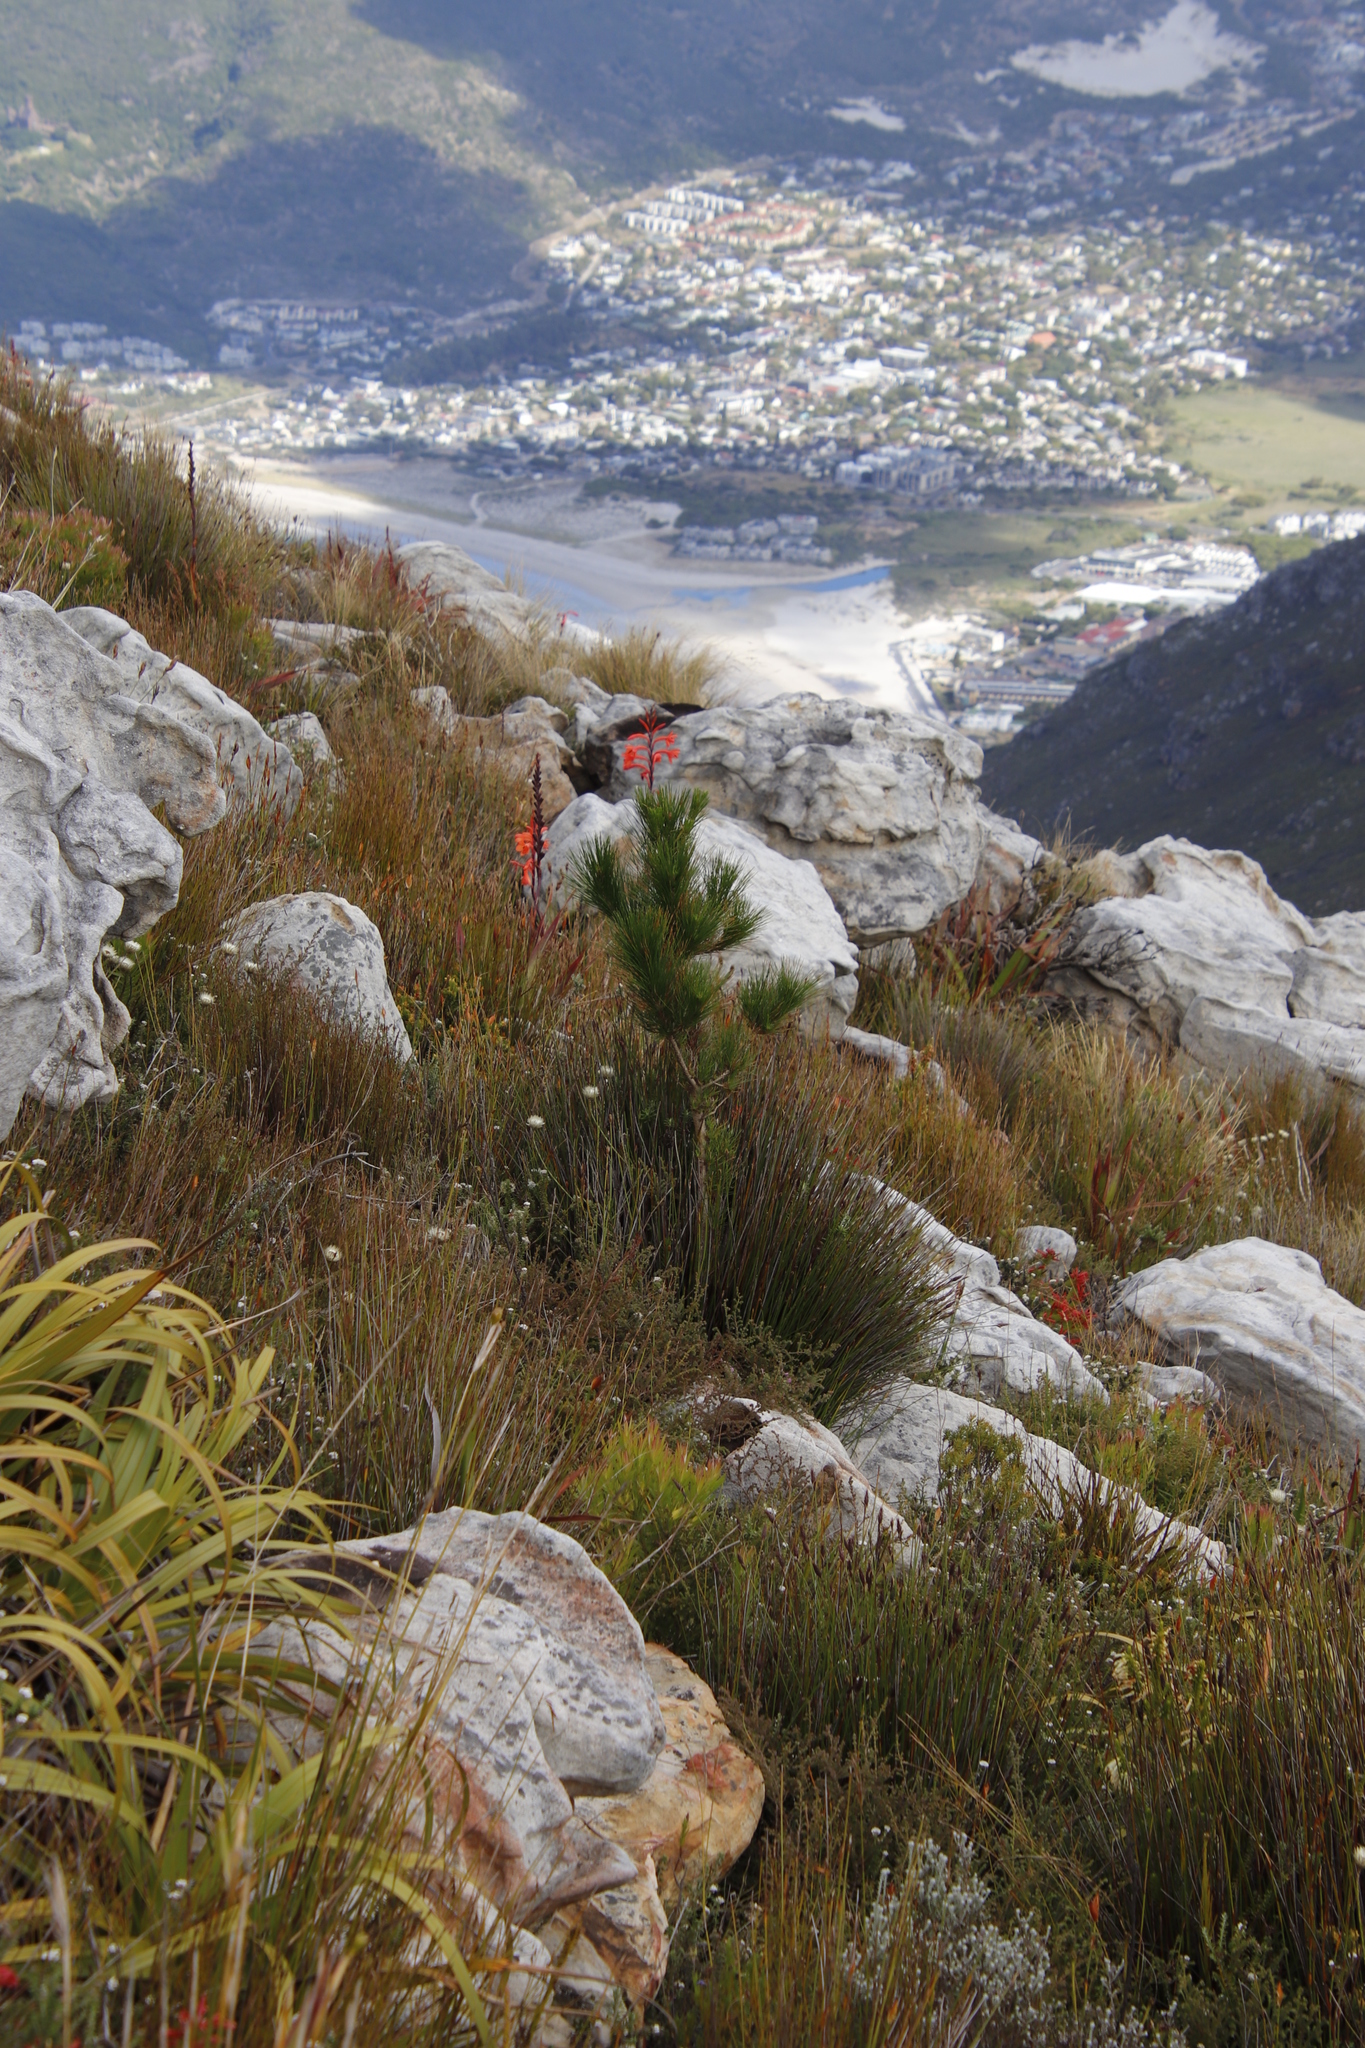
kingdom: Plantae
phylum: Tracheophyta
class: Pinopsida
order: Pinales
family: Pinaceae
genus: Pinus
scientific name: Pinus radiata
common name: Monterey pine
